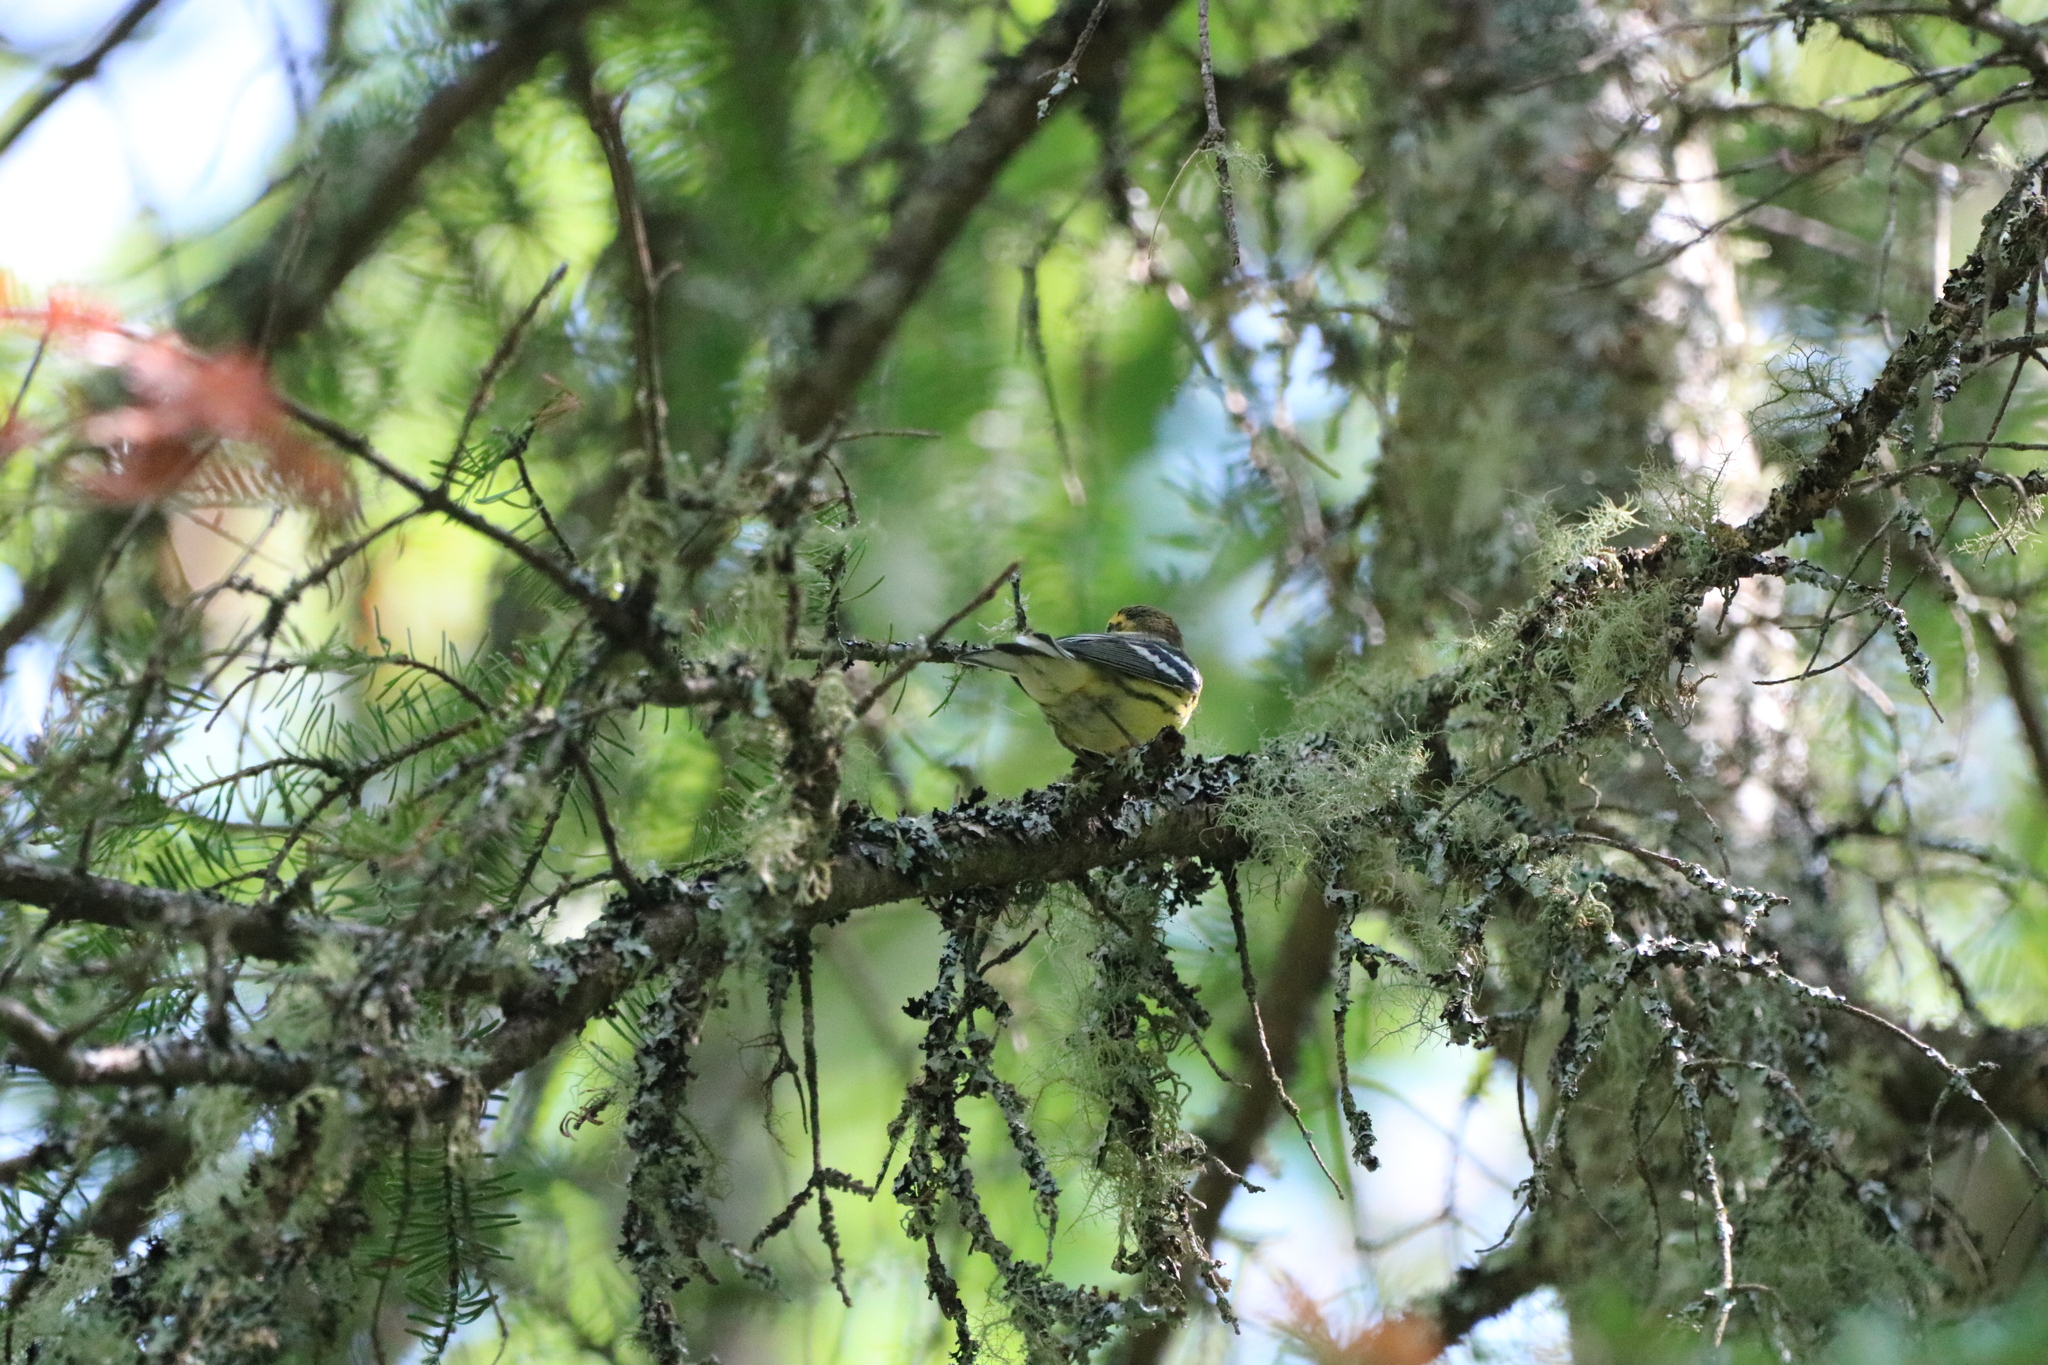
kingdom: Animalia
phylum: Chordata
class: Aves
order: Passeriformes
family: Parulidae
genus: Setophaga
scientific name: Setophaga fusca
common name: Blackburnian warbler
